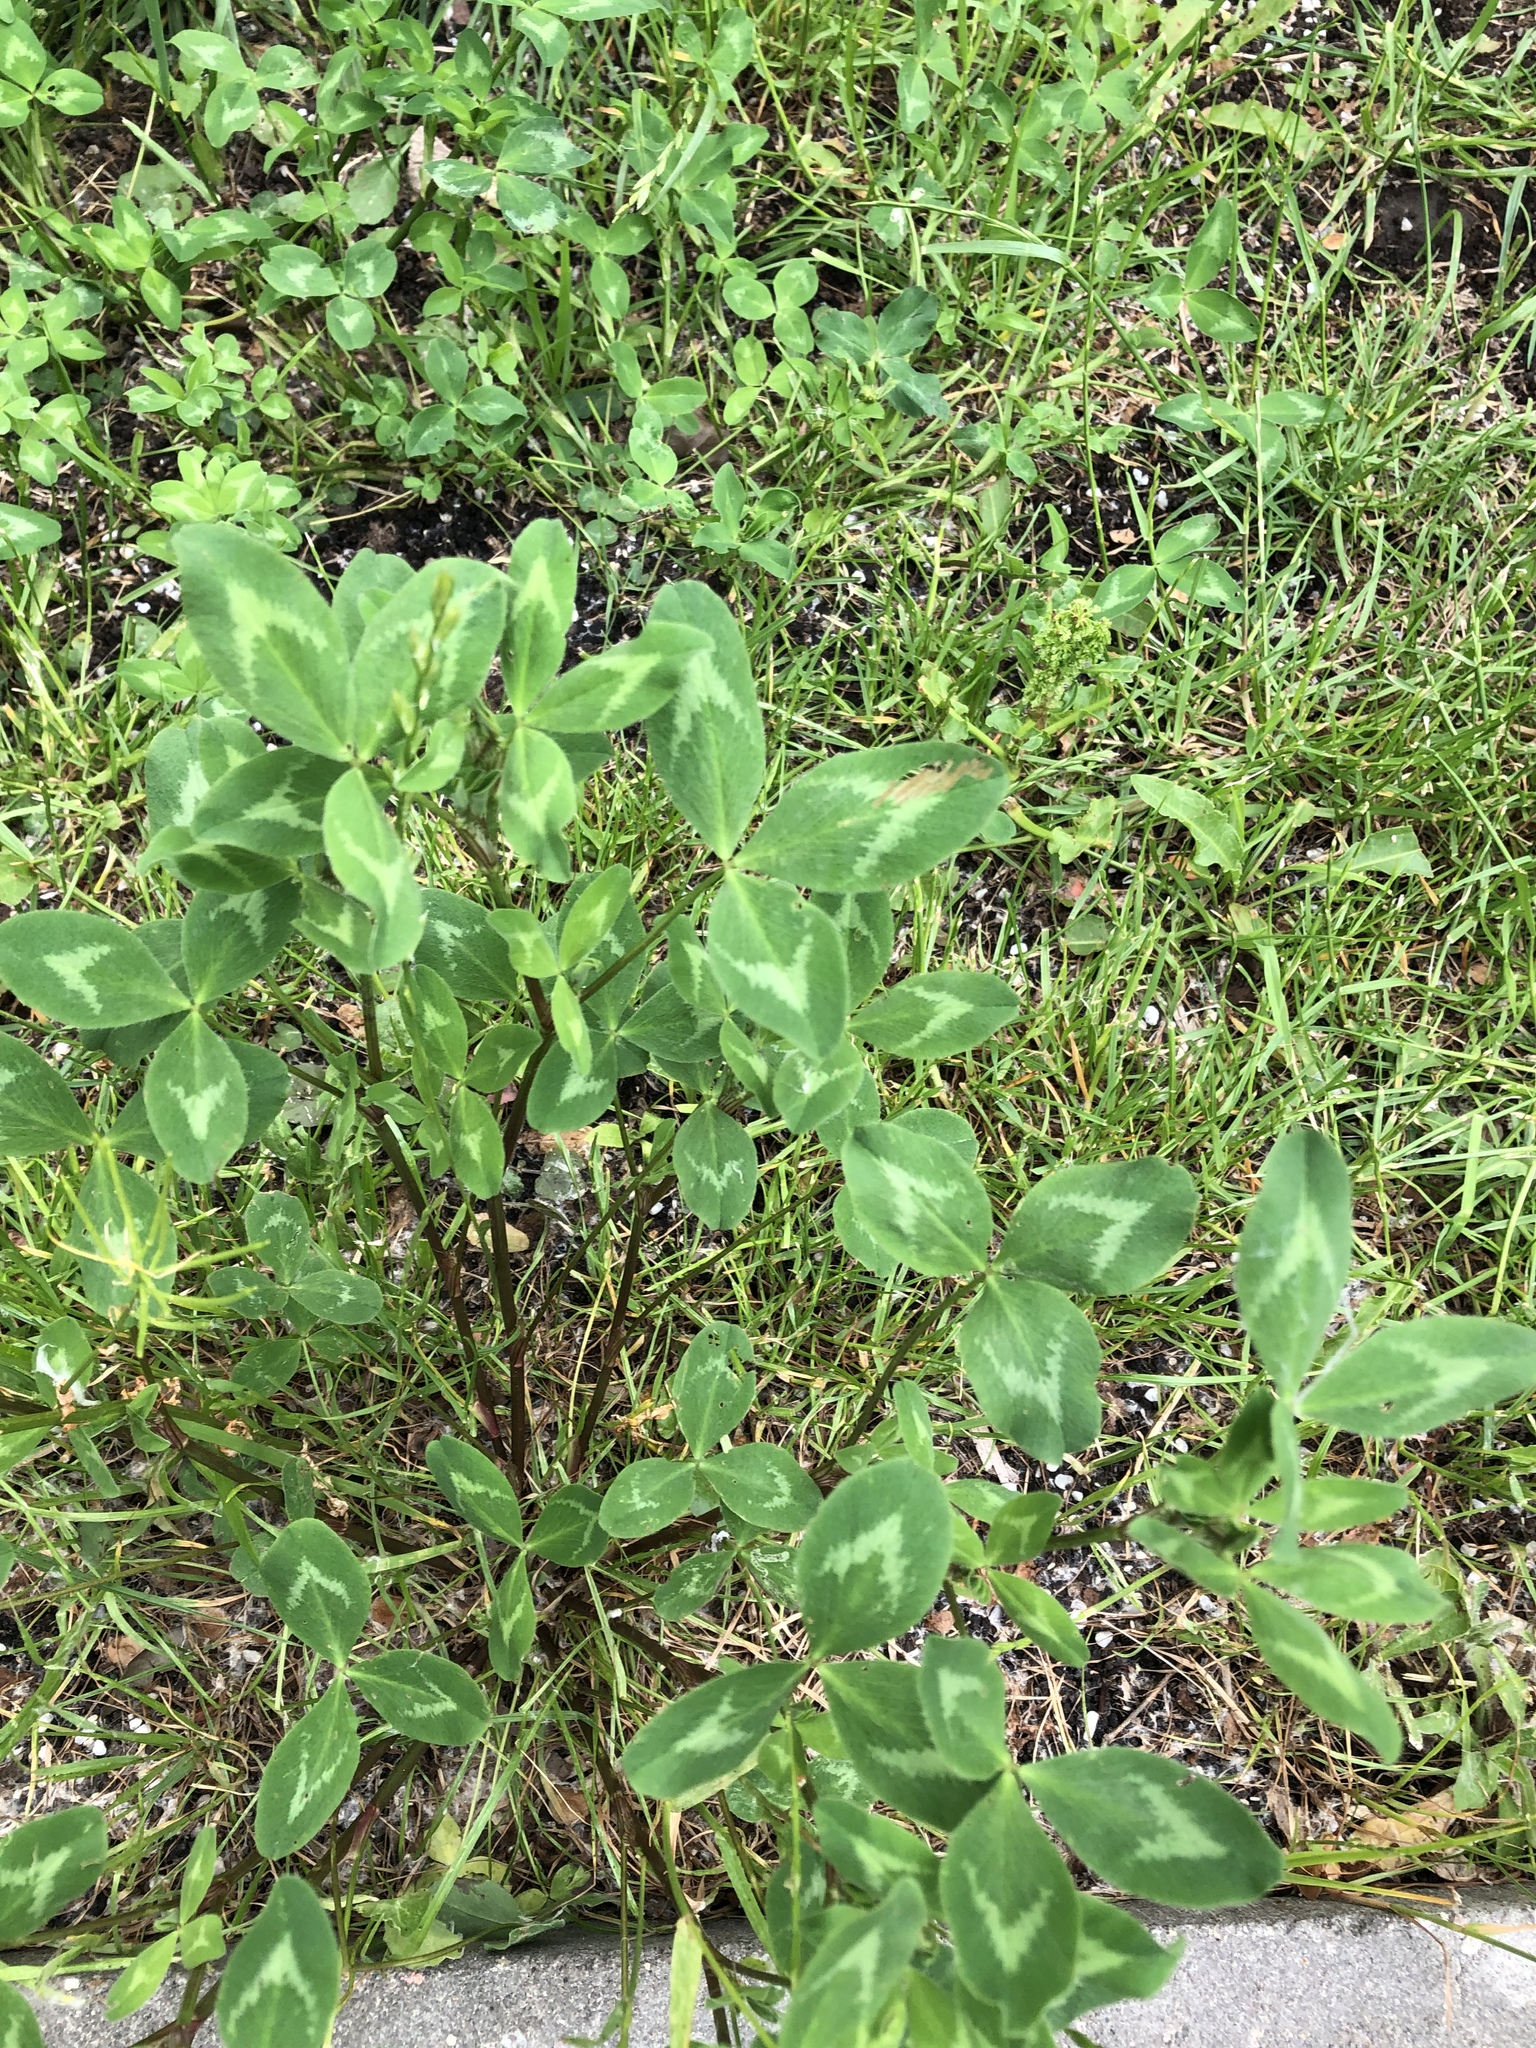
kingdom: Plantae
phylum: Tracheophyta
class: Magnoliopsida
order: Fabales
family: Fabaceae
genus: Trifolium
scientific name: Trifolium pratense
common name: Red clover
